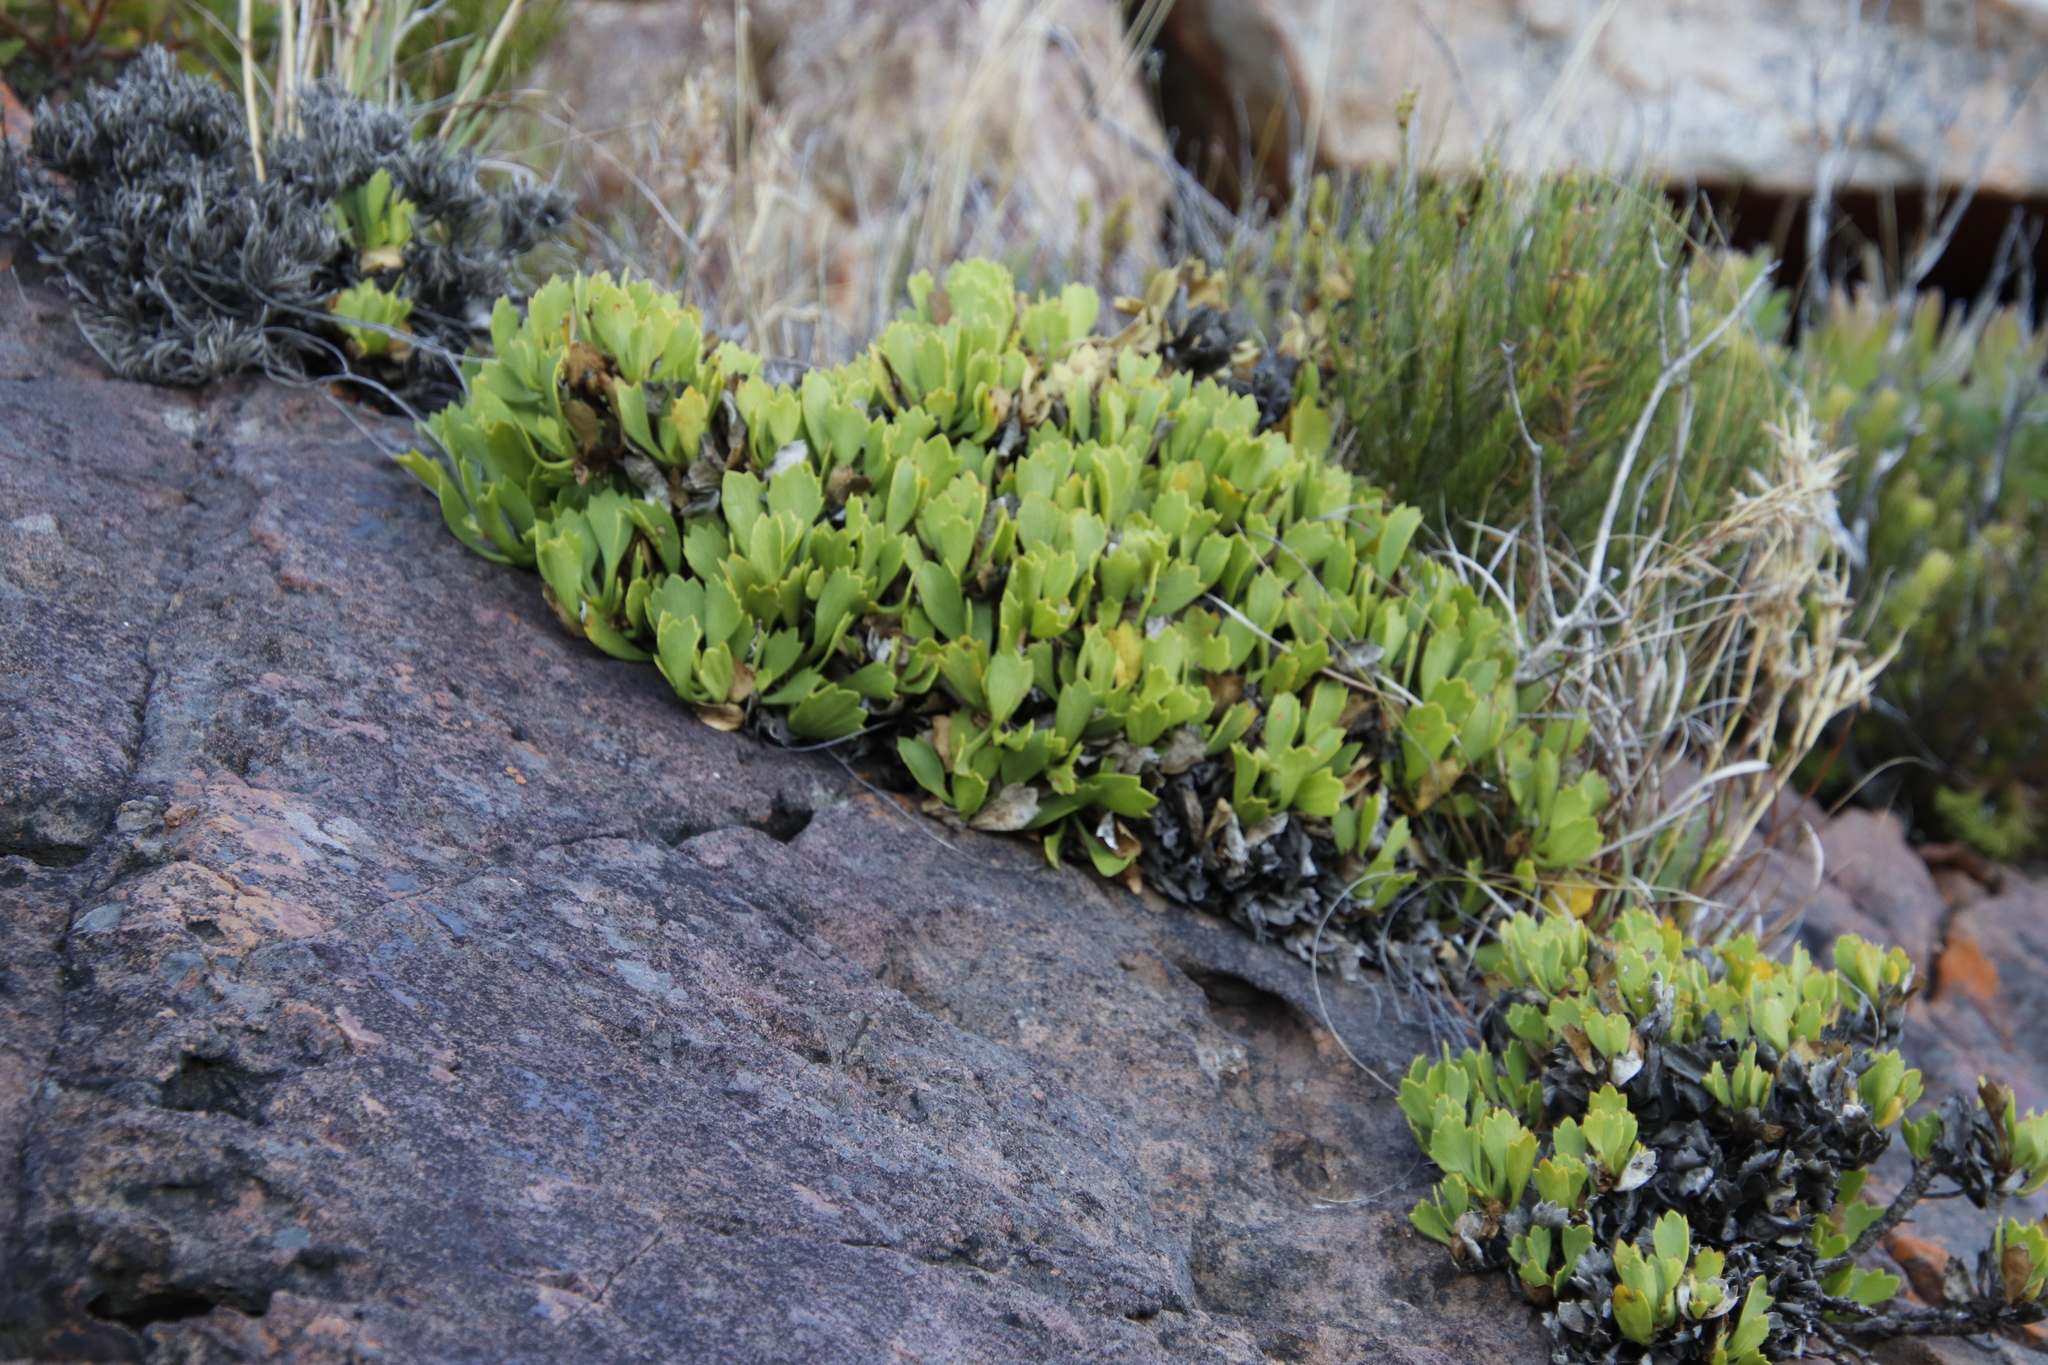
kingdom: Plantae
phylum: Tracheophyta
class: Magnoliopsida
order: Apiales
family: Apiaceae
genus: Centella
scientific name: Centella triloba
